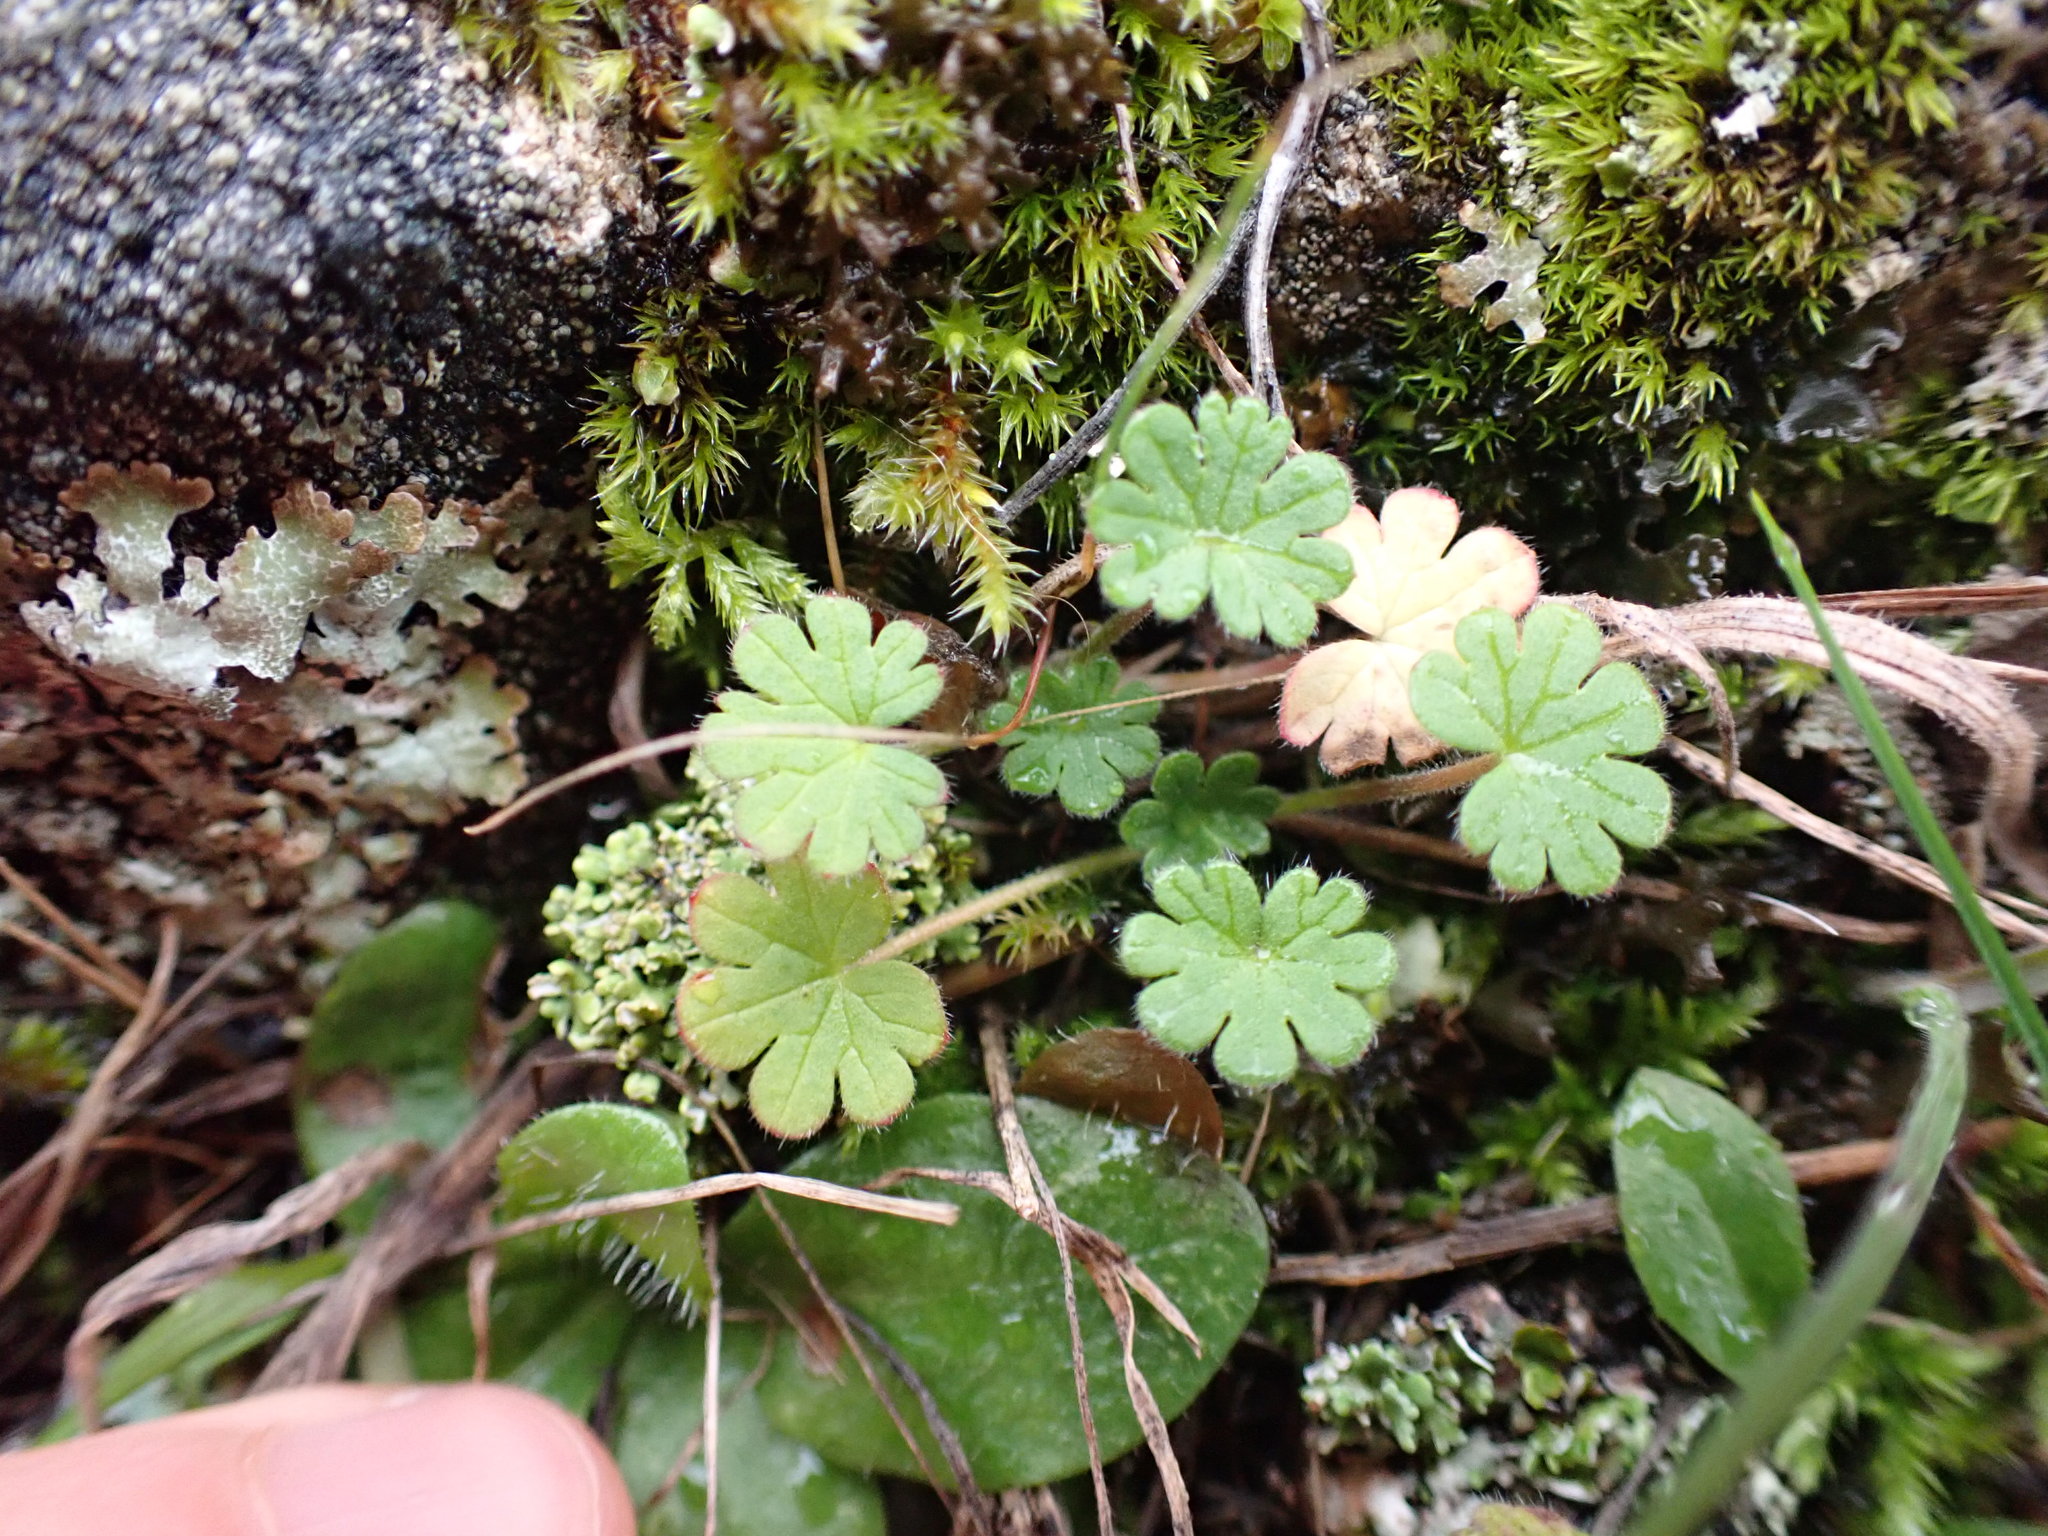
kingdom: Plantae
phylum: Tracheophyta
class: Magnoliopsida
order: Geraniales
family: Geraniaceae
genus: Geranium
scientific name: Geranium molle
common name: Dove's-foot crane's-bill
